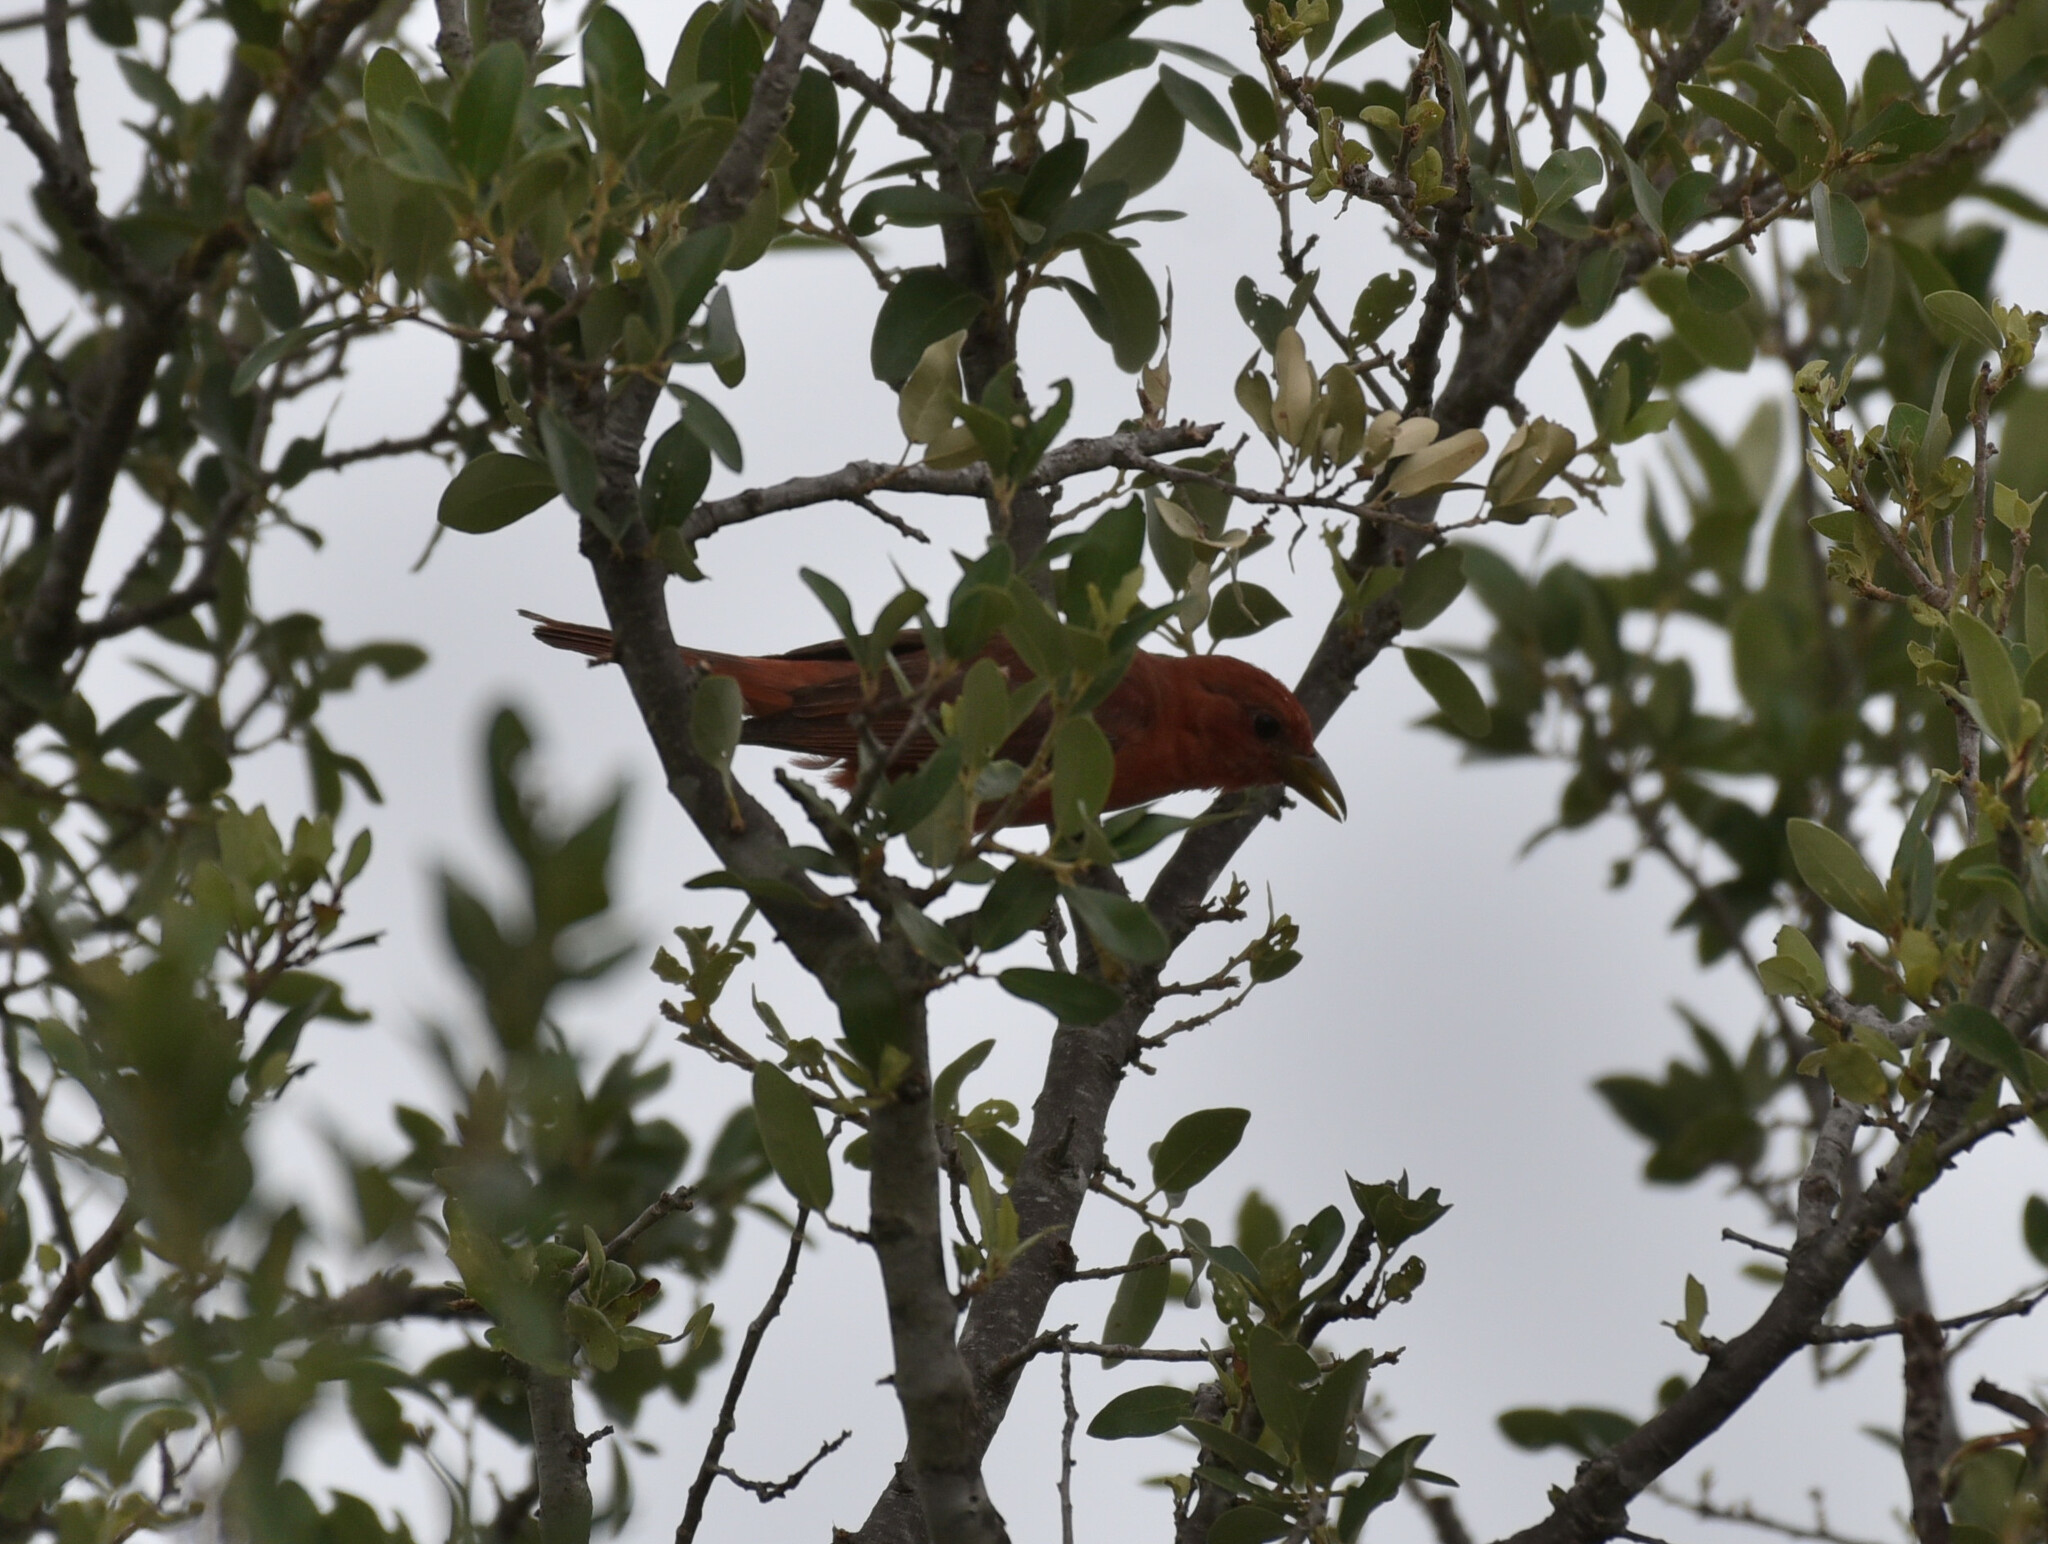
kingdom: Animalia
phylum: Chordata
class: Aves
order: Passeriformes
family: Cardinalidae
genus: Piranga
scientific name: Piranga rubra
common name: Summer tanager
